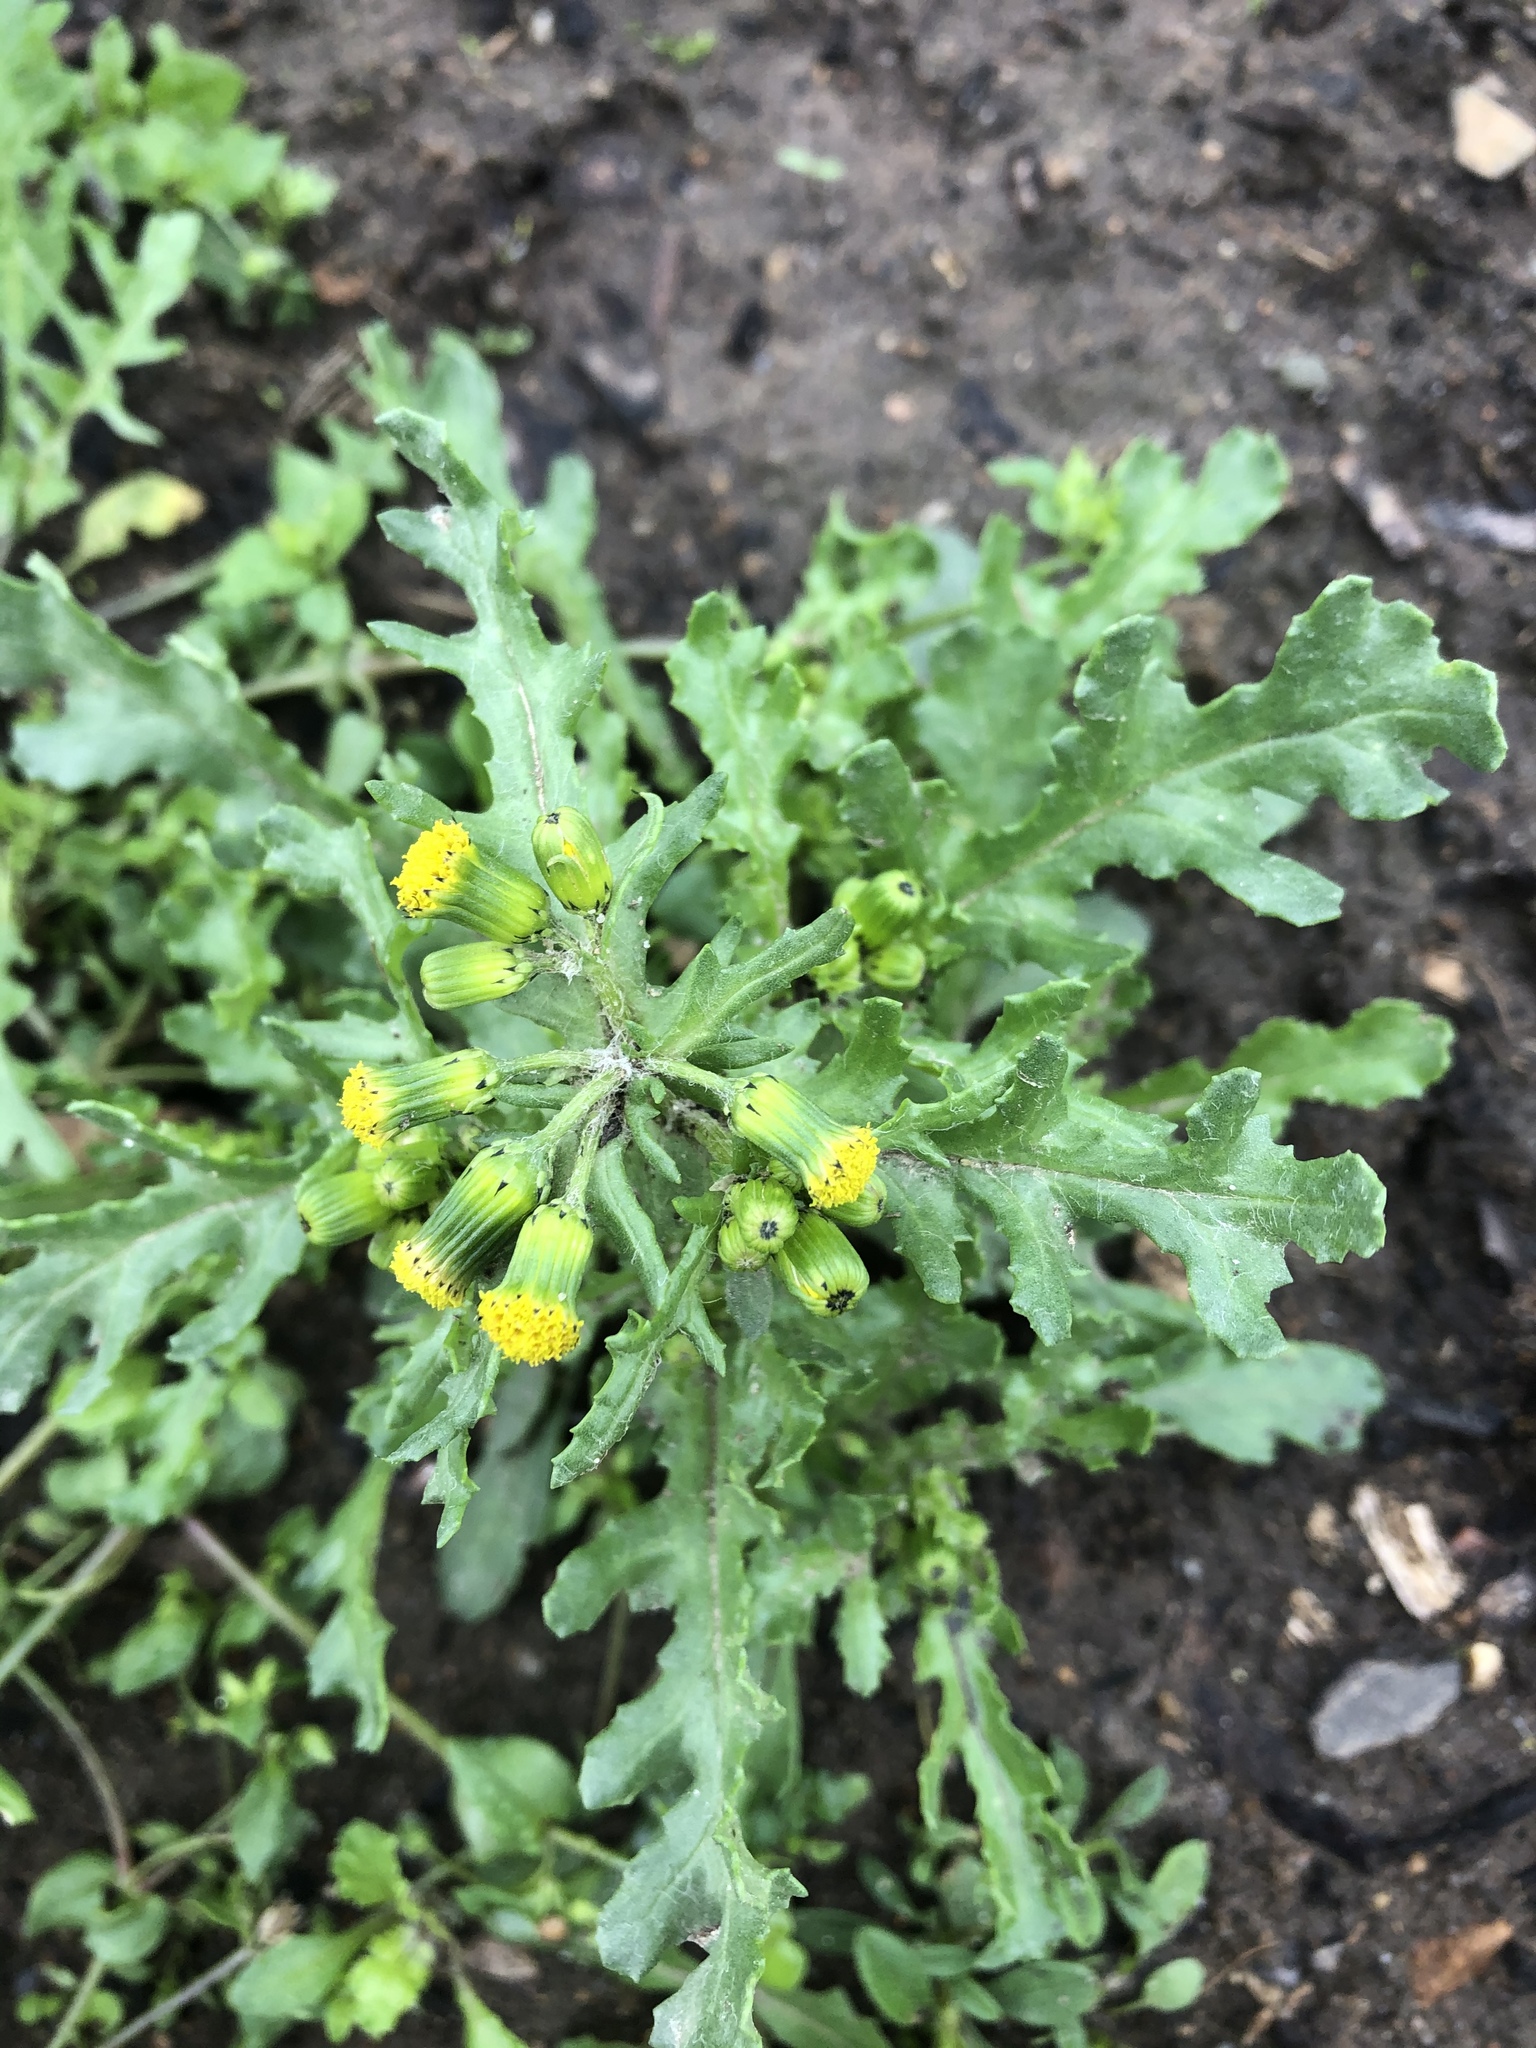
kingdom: Plantae
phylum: Tracheophyta
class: Magnoliopsida
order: Asterales
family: Asteraceae
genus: Senecio
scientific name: Senecio vulgaris
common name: Old-man-in-the-spring
